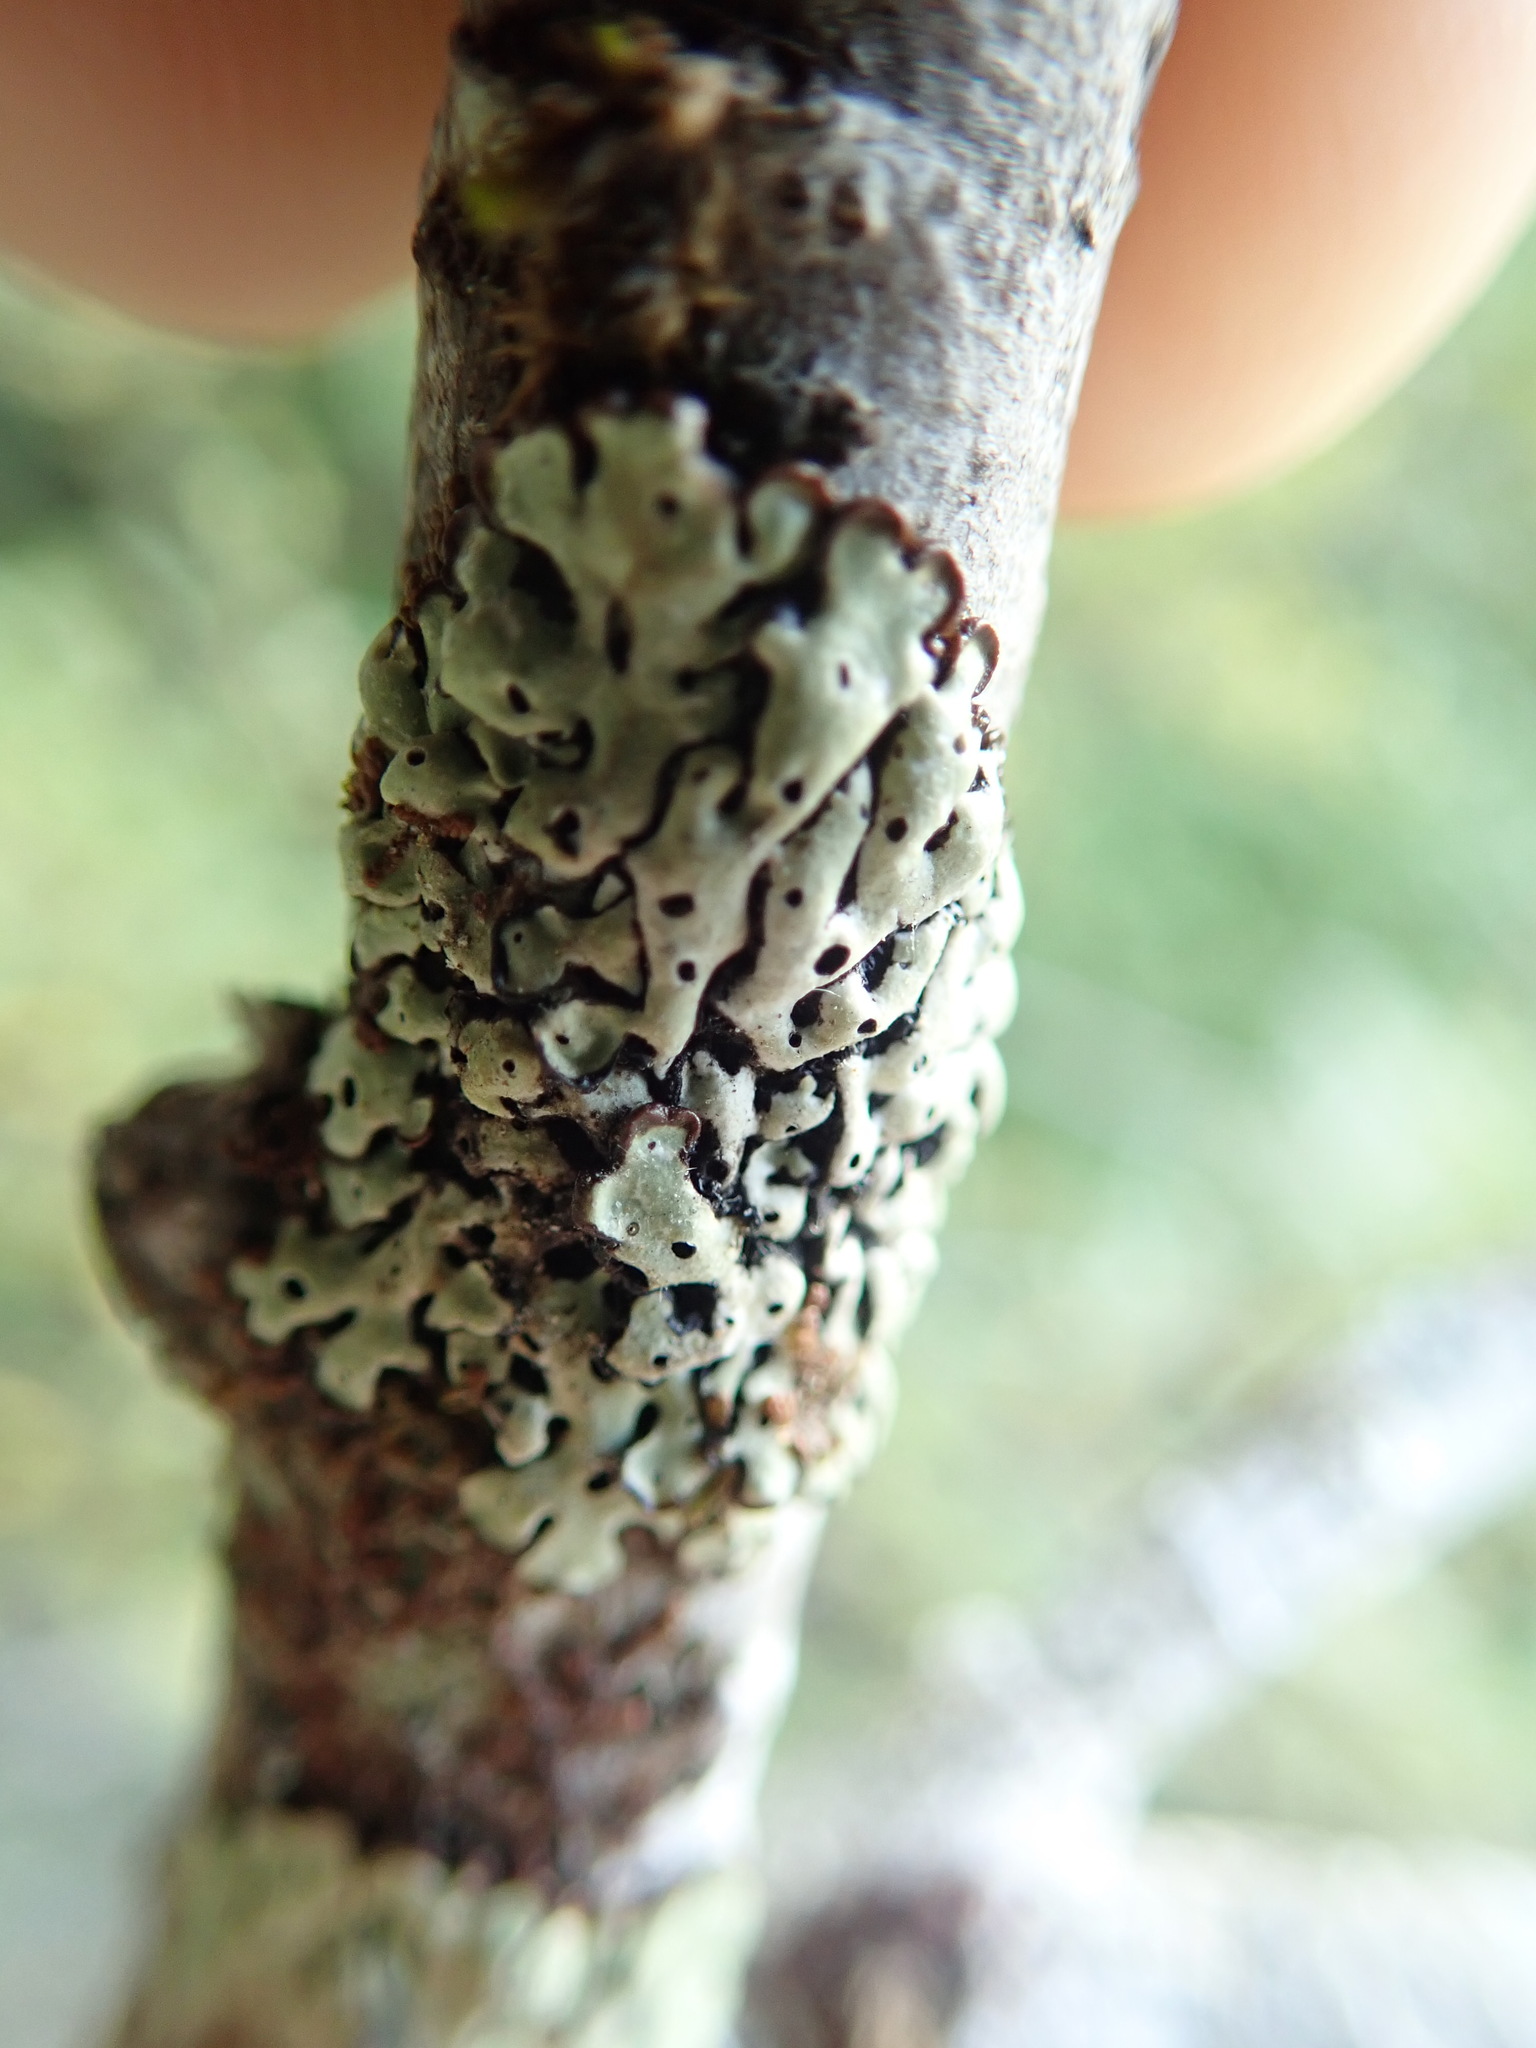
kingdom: Fungi
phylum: Ascomycota
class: Lecanoromycetes
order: Lecanorales
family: Parmeliaceae
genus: Menegazzia
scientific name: Menegazzia subsimilis
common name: Tree flute lichen
